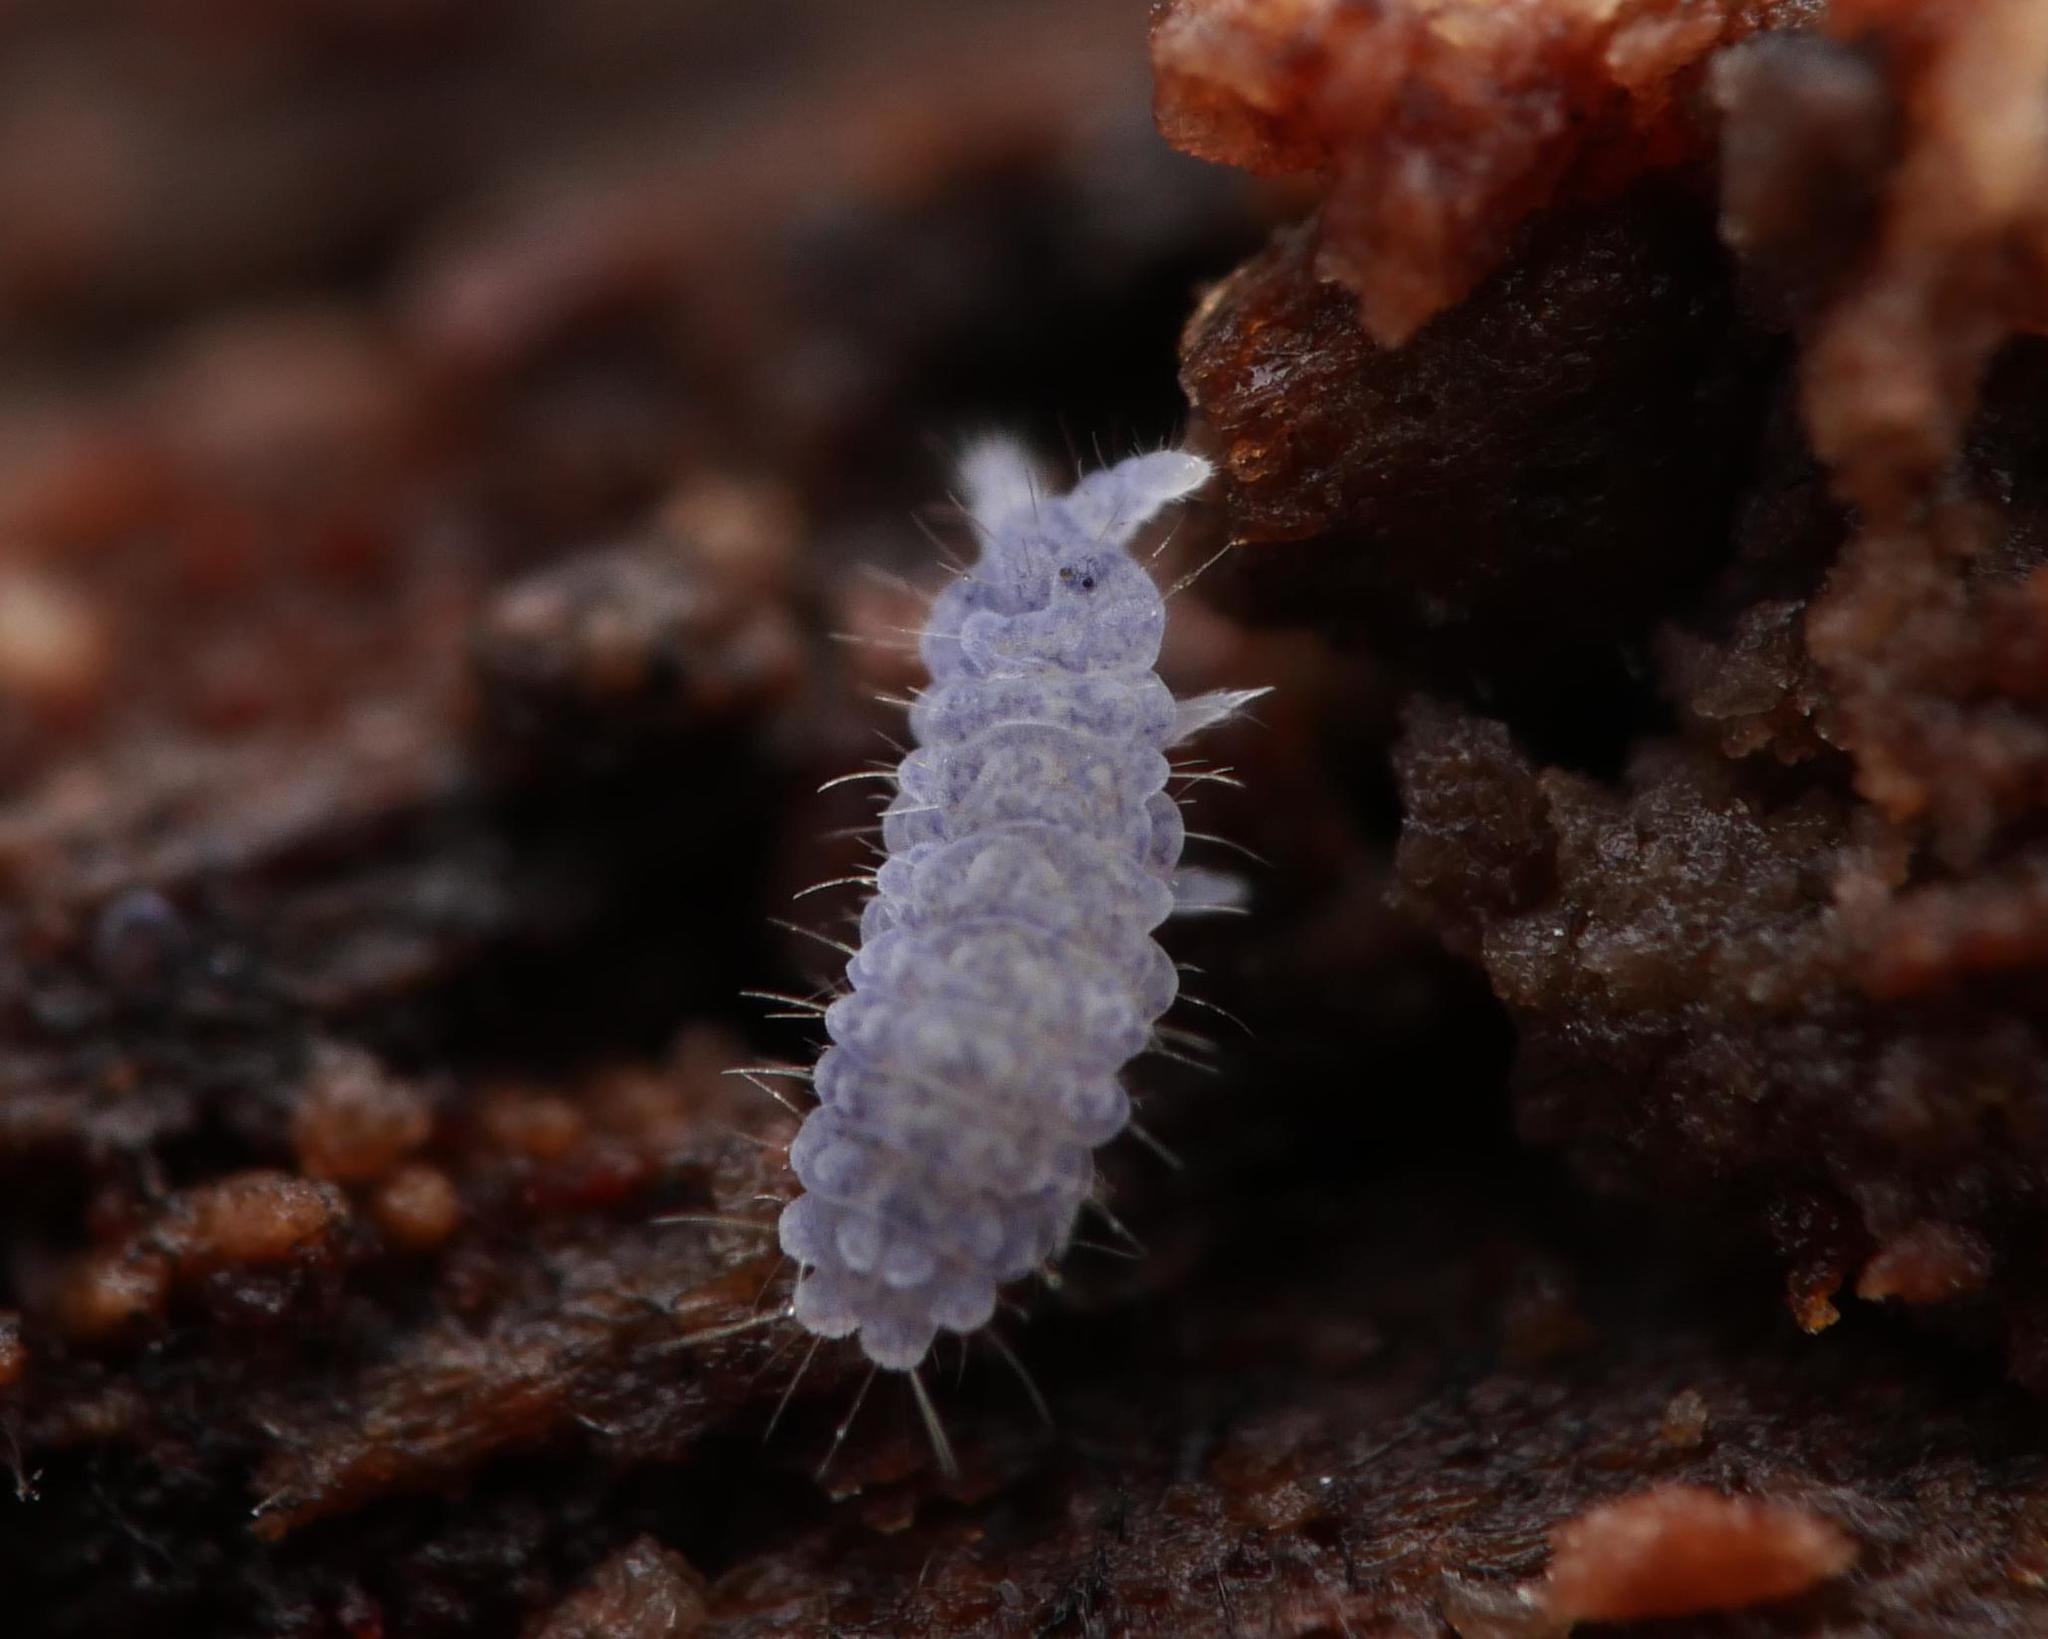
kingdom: Animalia
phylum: Arthropoda
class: Collembola
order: Poduromorpha
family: Neanuridae
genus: Neanura
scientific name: Neanura muscorum
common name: Springtail
